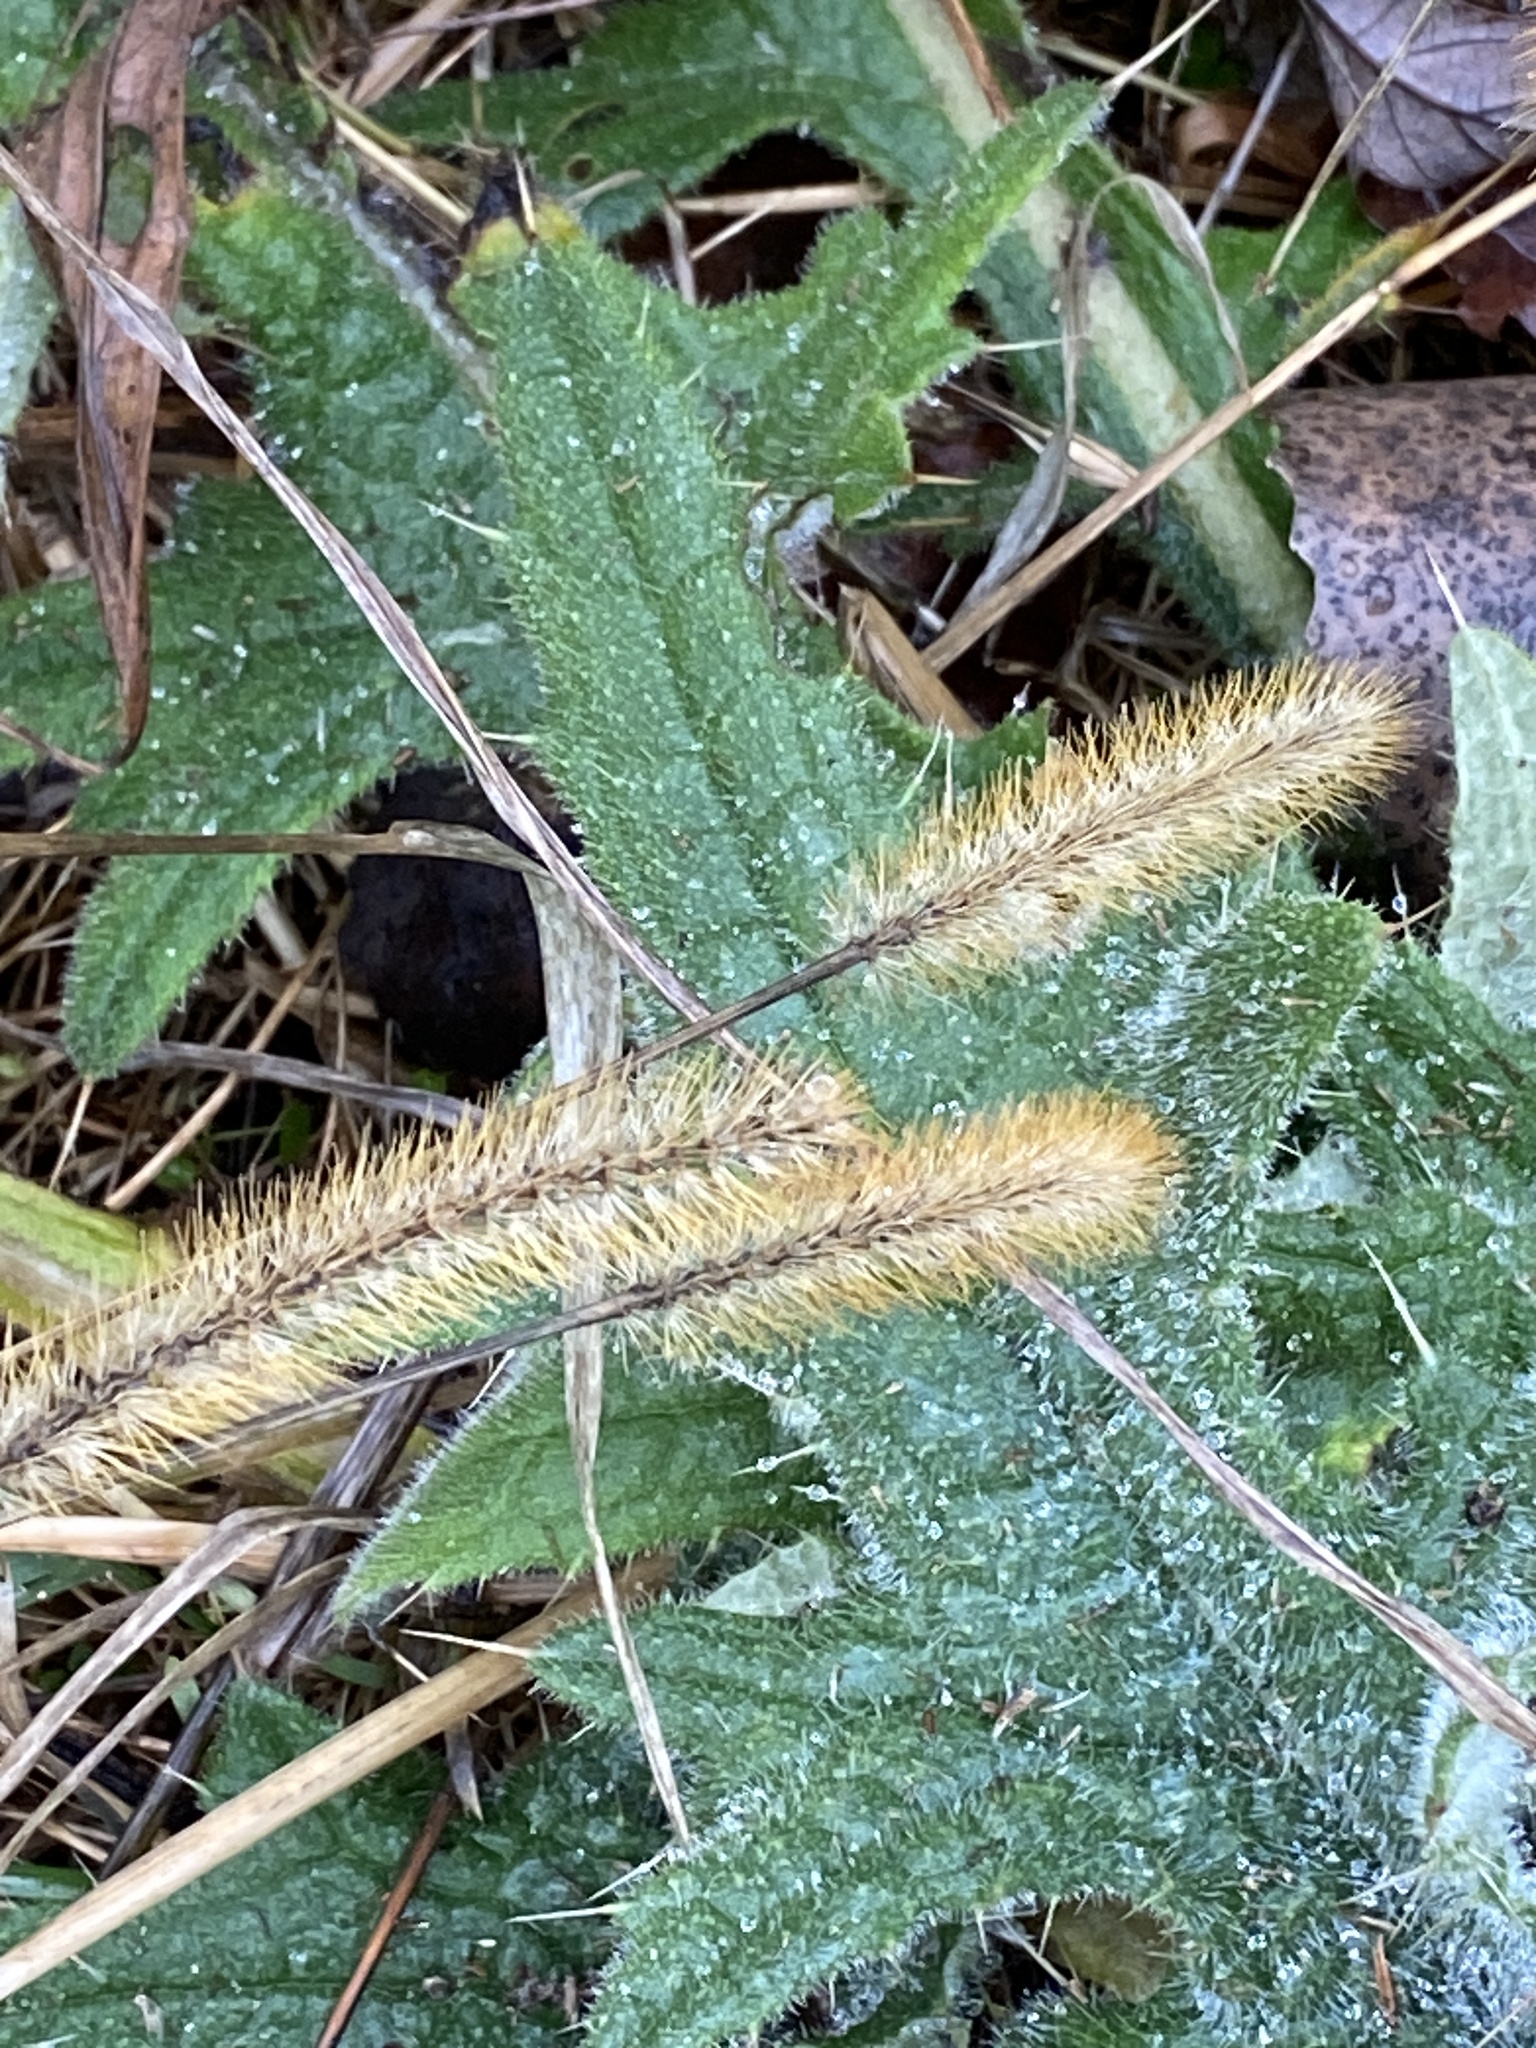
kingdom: Plantae
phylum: Tracheophyta
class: Liliopsida
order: Poales
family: Poaceae
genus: Setaria
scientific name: Setaria pumila
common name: Yellow bristle-grass
